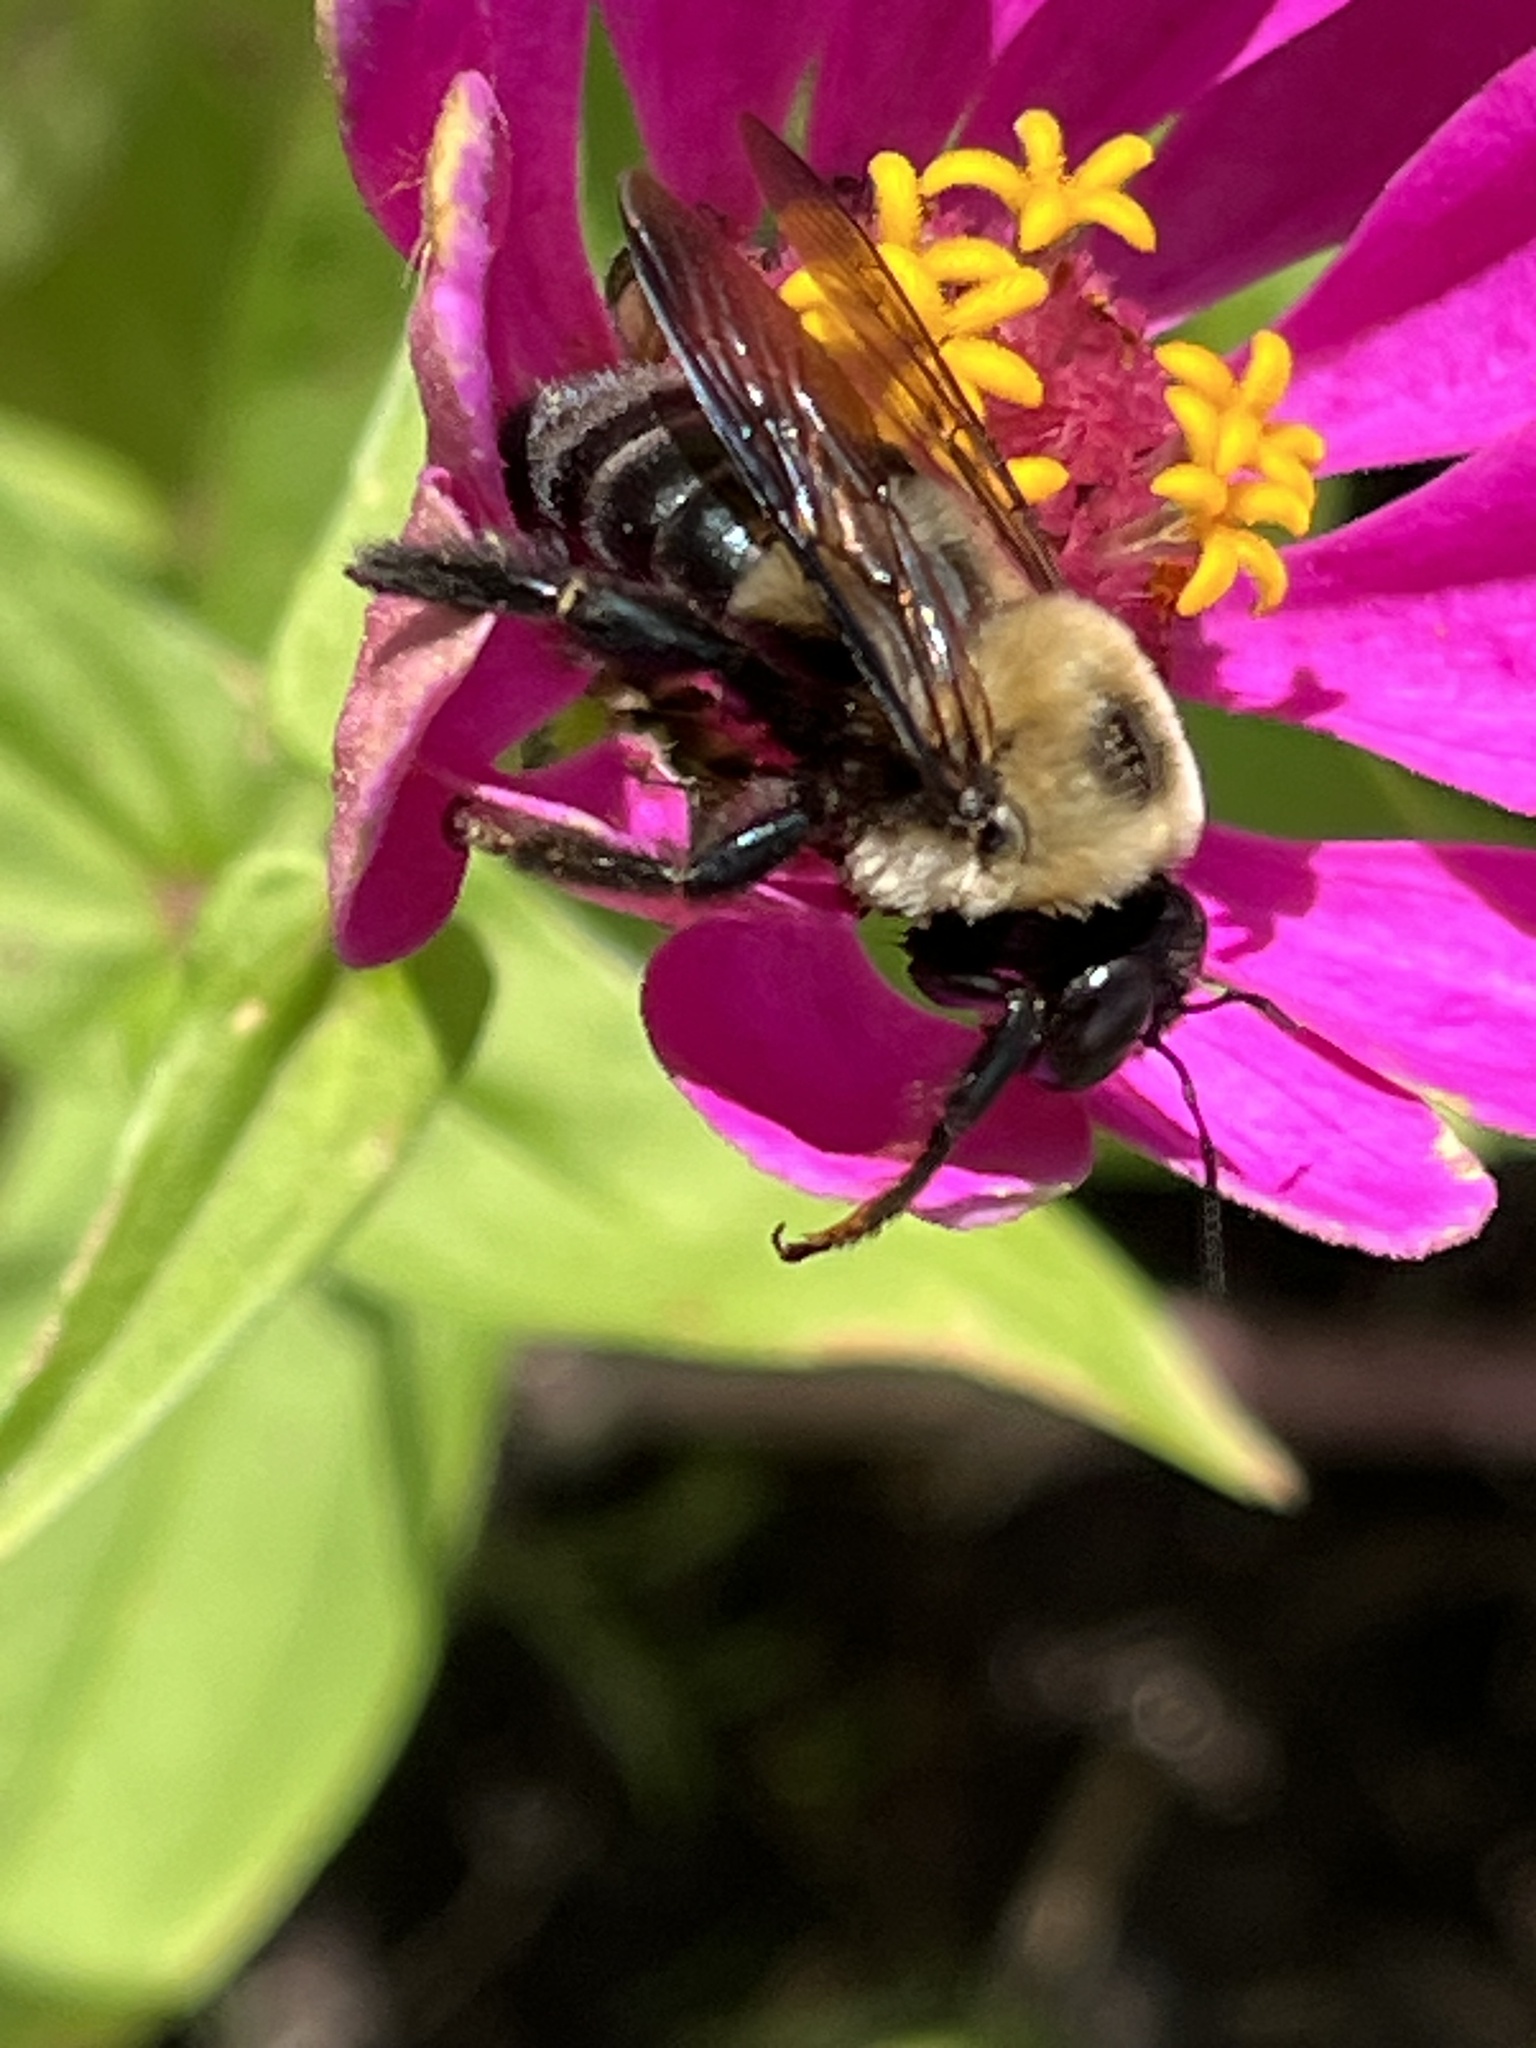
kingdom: Animalia
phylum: Arthropoda
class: Insecta
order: Hymenoptera
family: Apidae
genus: Xylocopa
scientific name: Xylocopa virginica
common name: Carpenter bee
